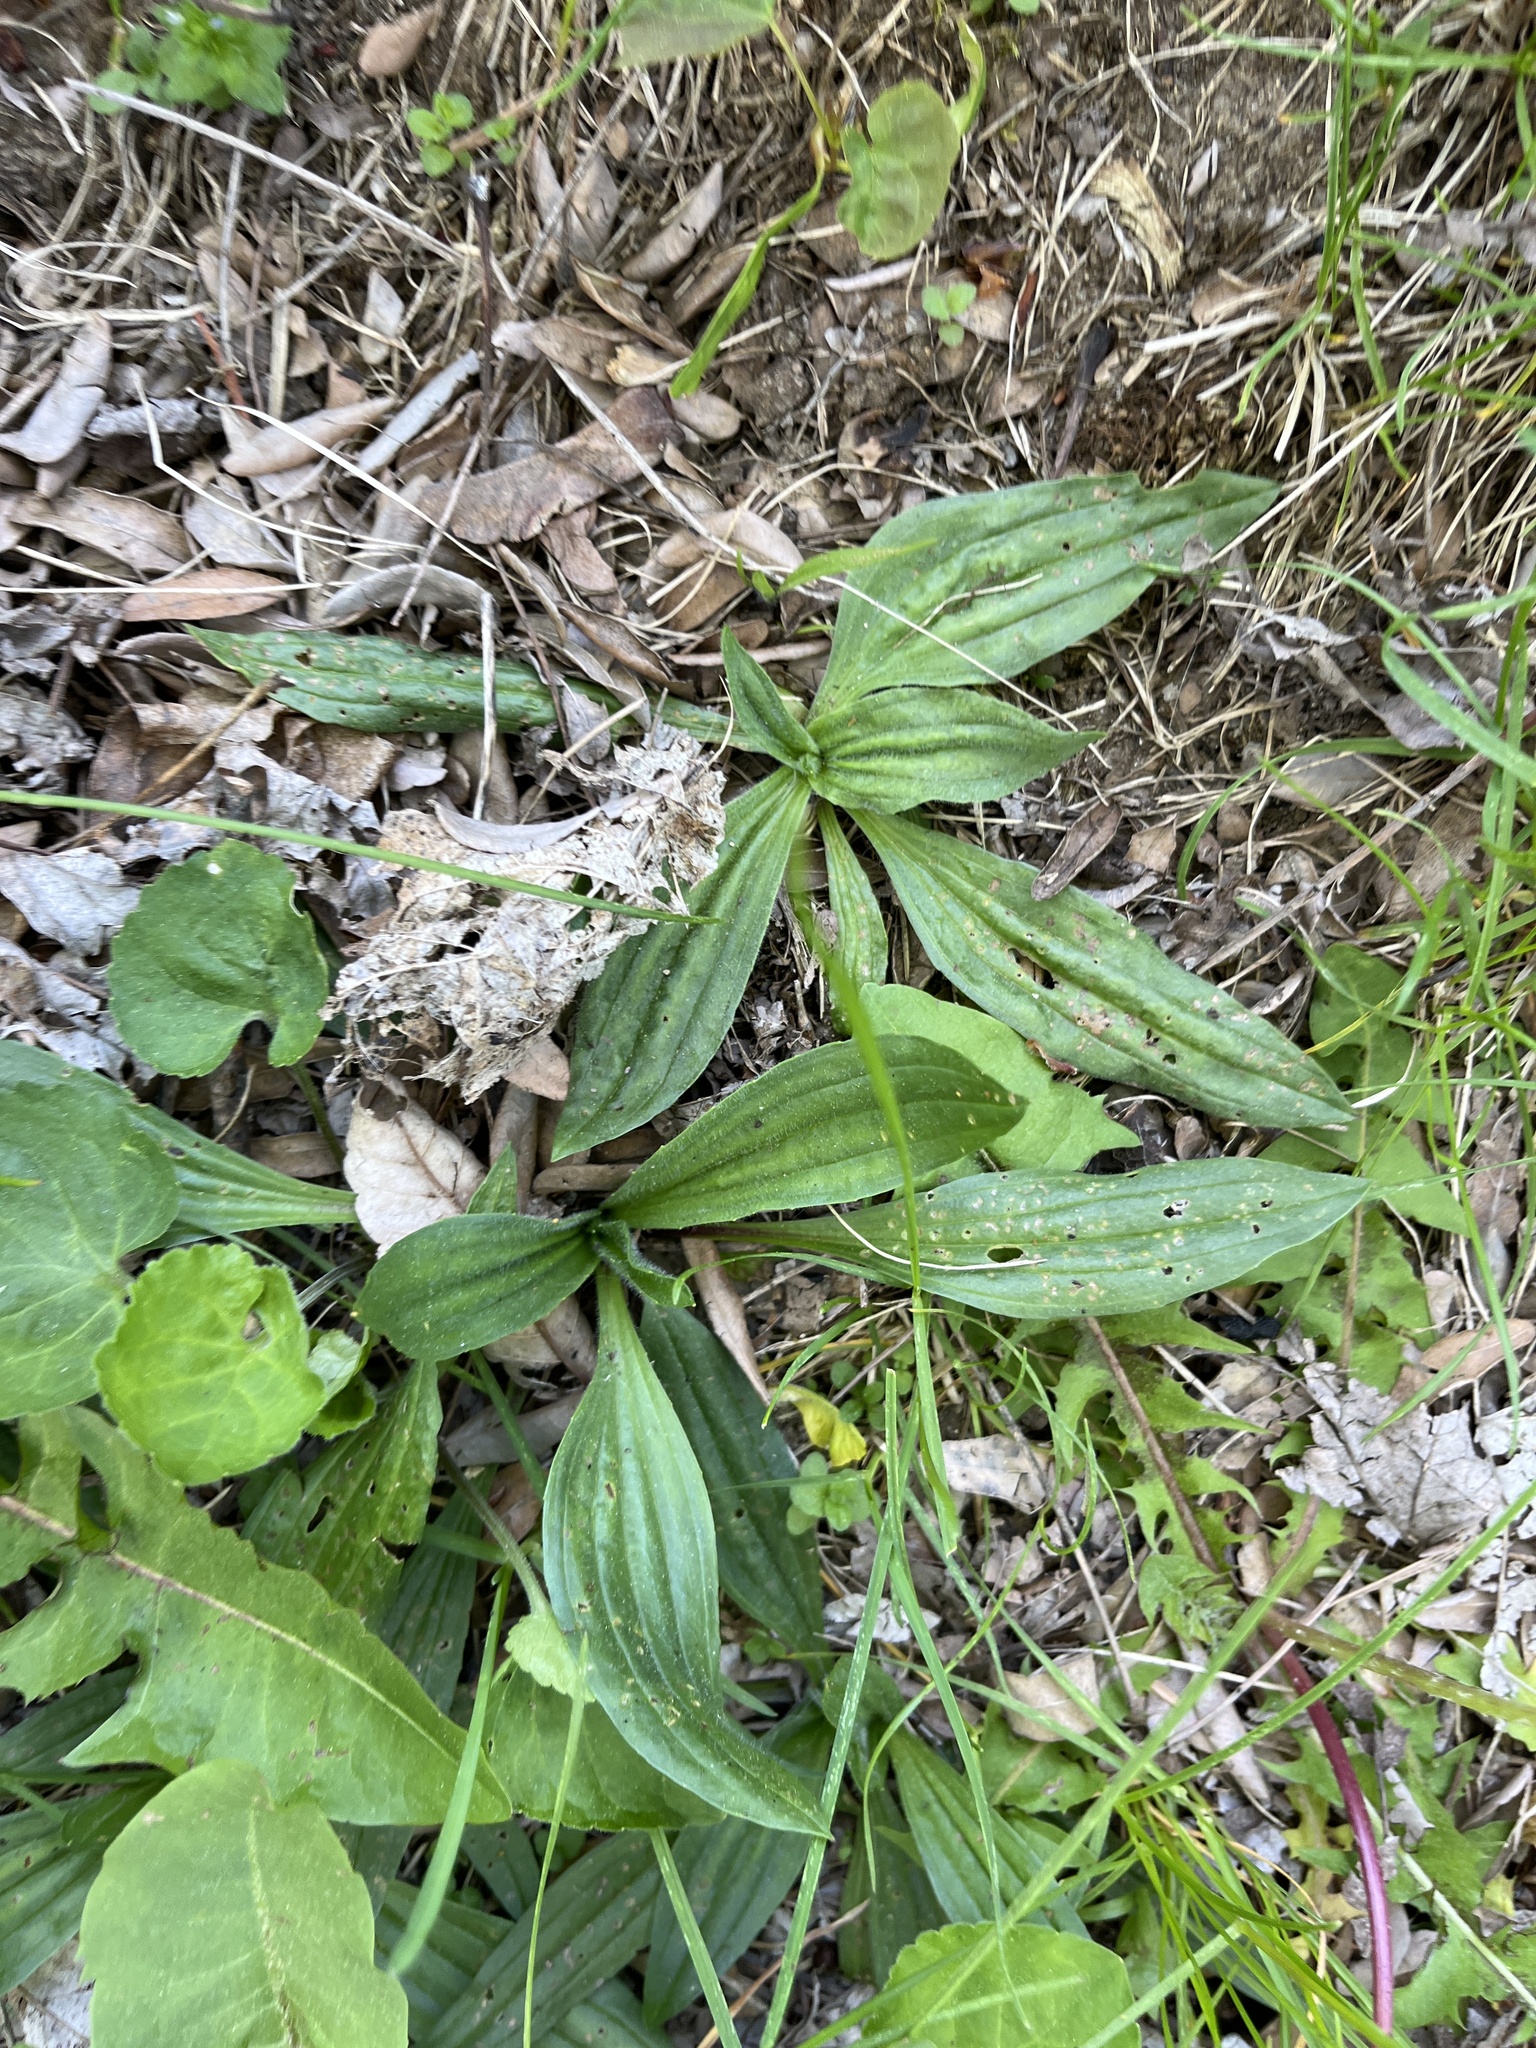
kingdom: Plantae
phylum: Tracheophyta
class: Magnoliopsida
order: Lamiales
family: Plantaginaceae
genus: Plantago
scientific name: Plantago lanceolata
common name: Ribwort plantain
